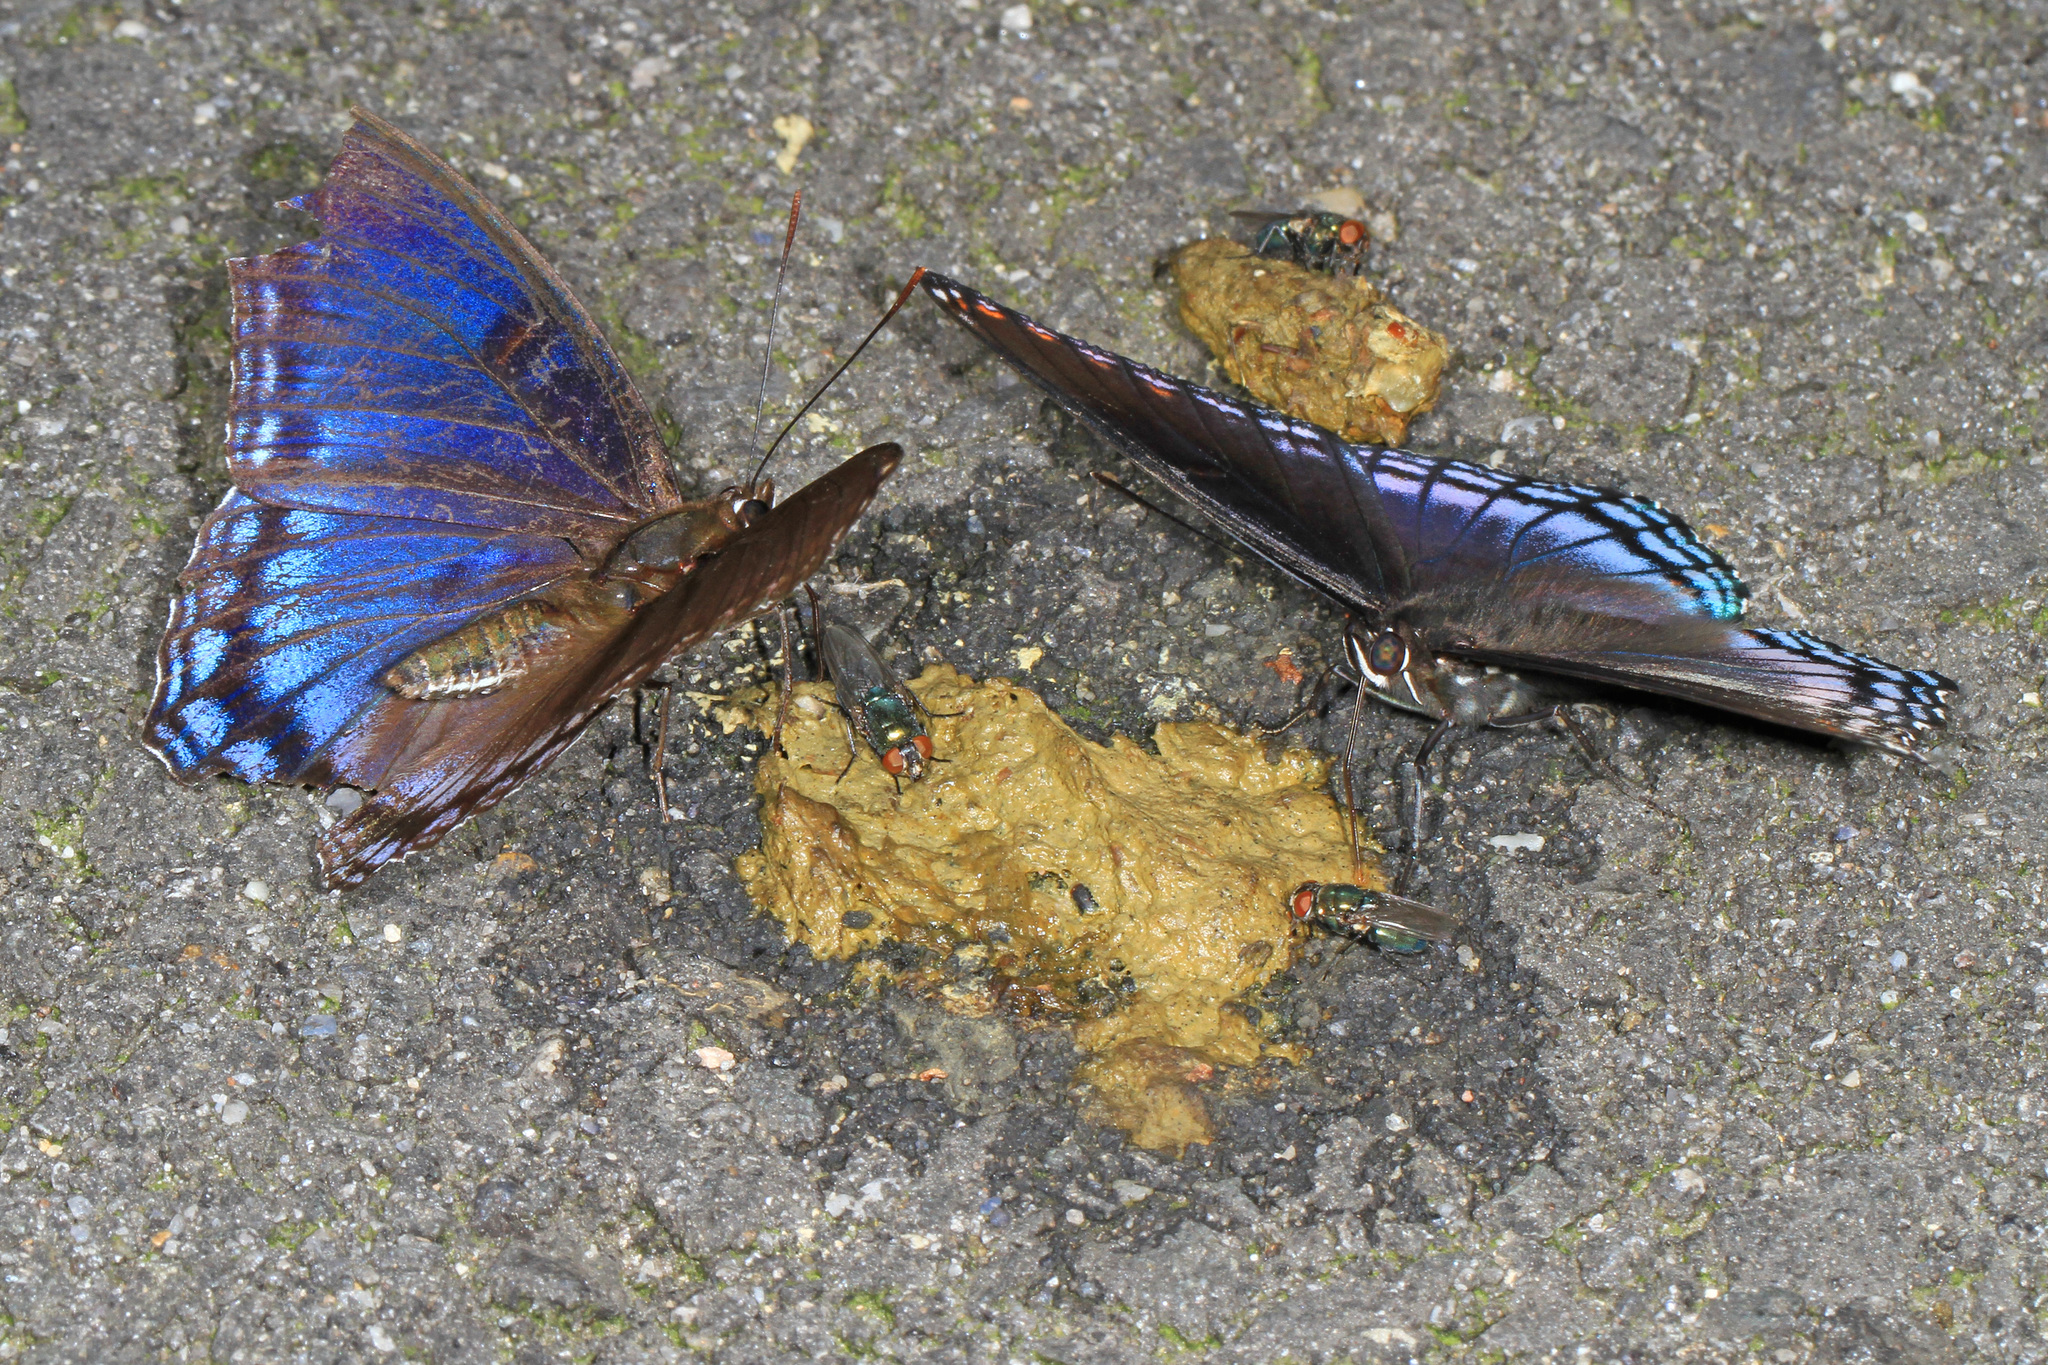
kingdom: Animalia
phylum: Arthropoda
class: Insecta
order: Lepidoptera
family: Nymphalidae
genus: Limenitis
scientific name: Limenitis astyanax
